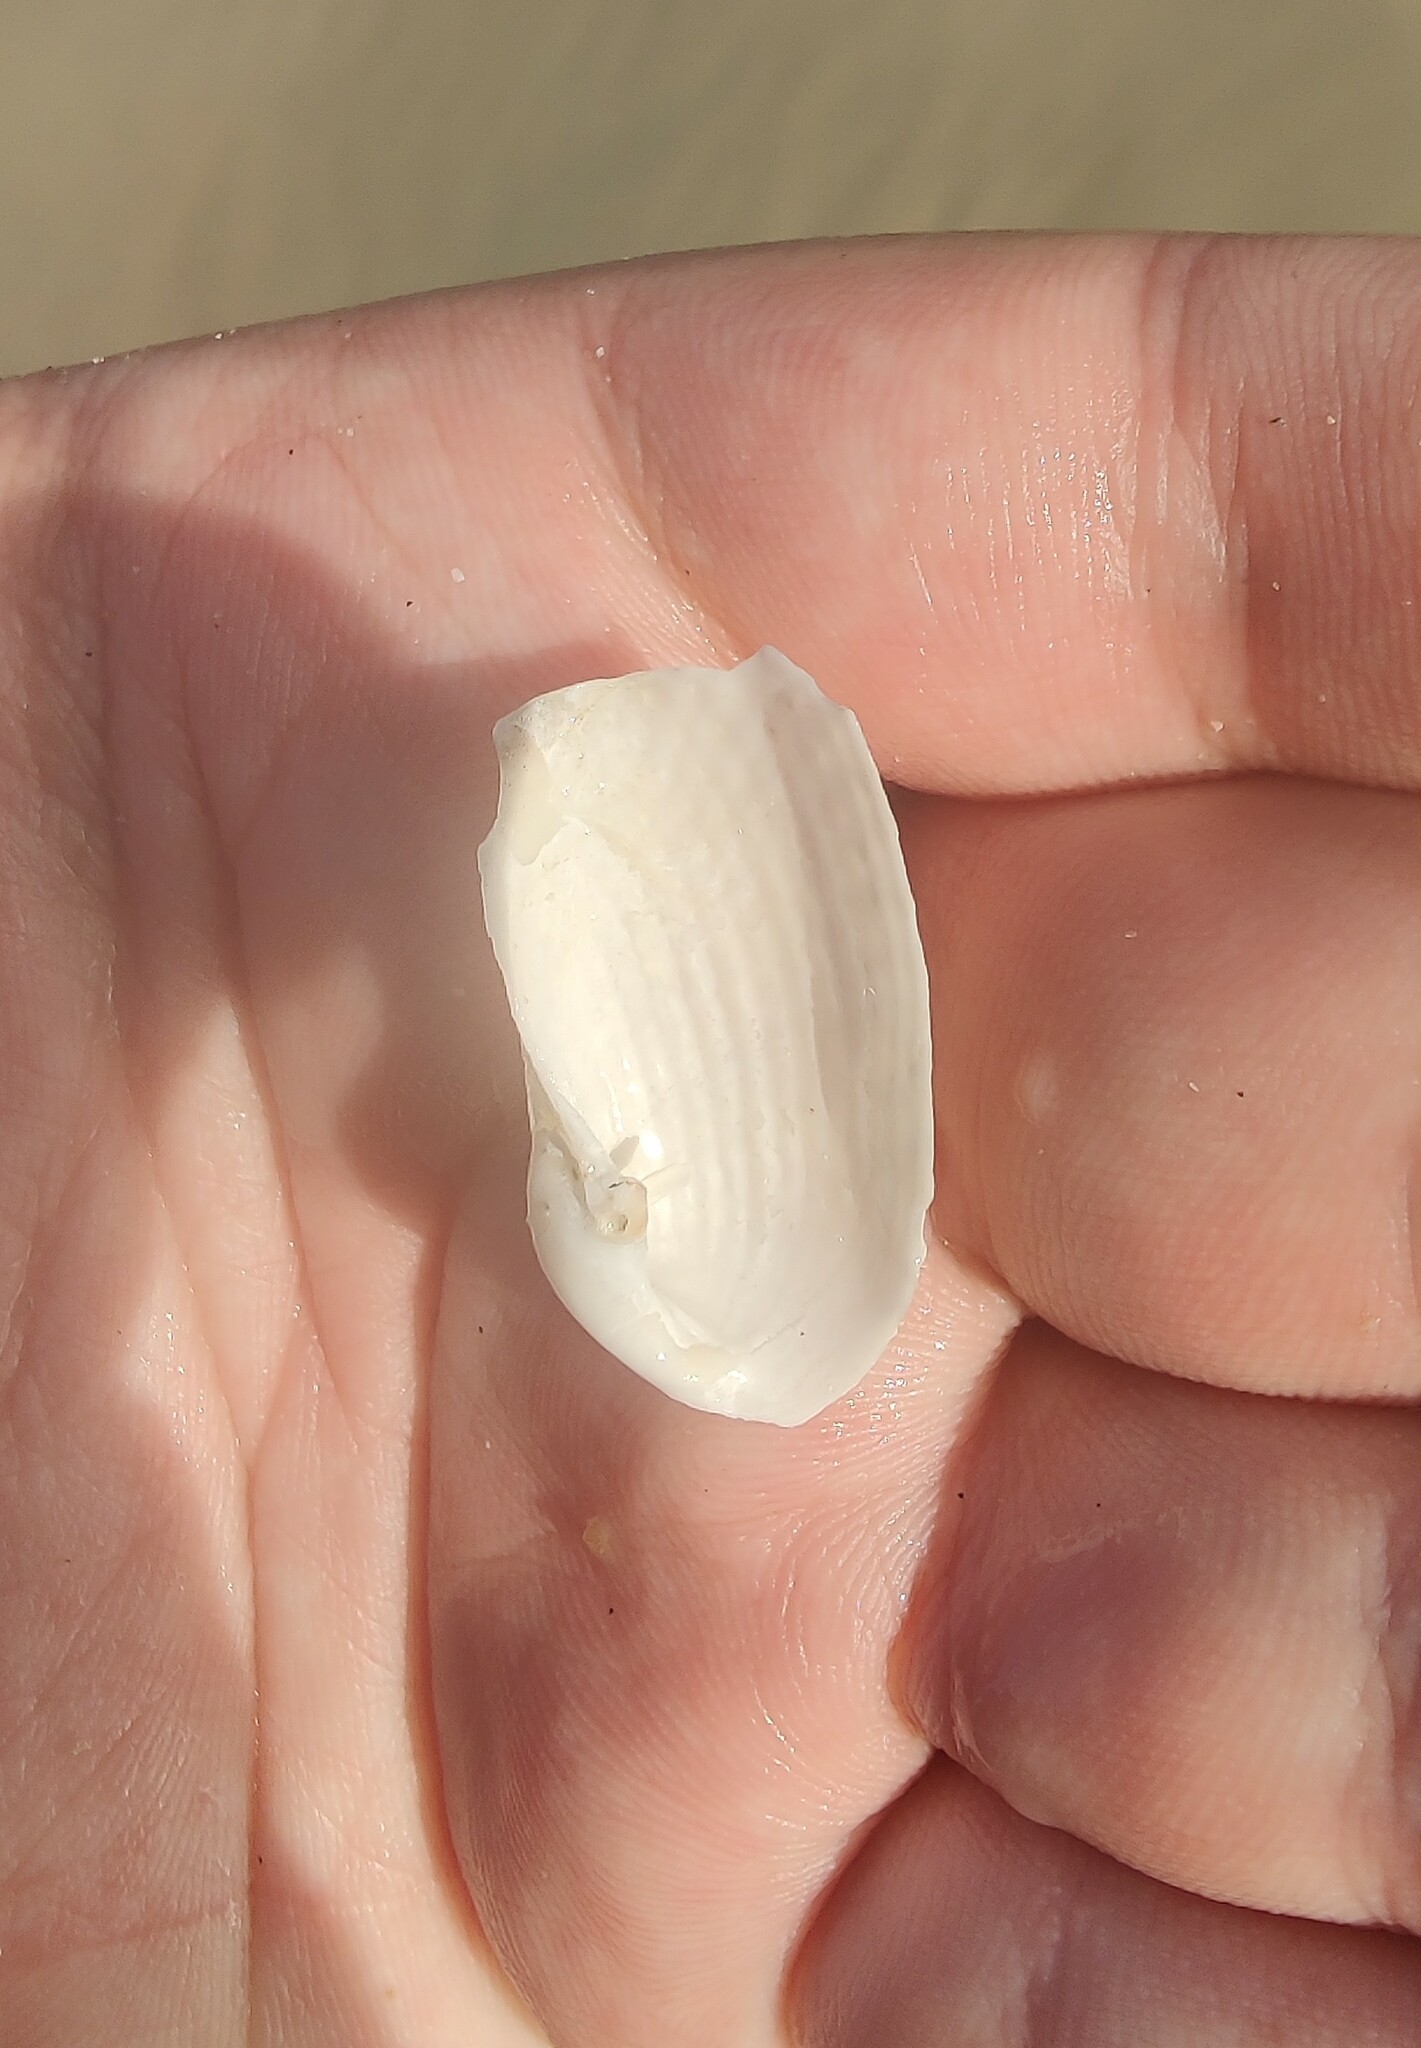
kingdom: Animalia
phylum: Mollusca
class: Bivalvia
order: Myida
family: Pholadidae
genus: Barnea
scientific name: Barnea candida
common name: White piddock
